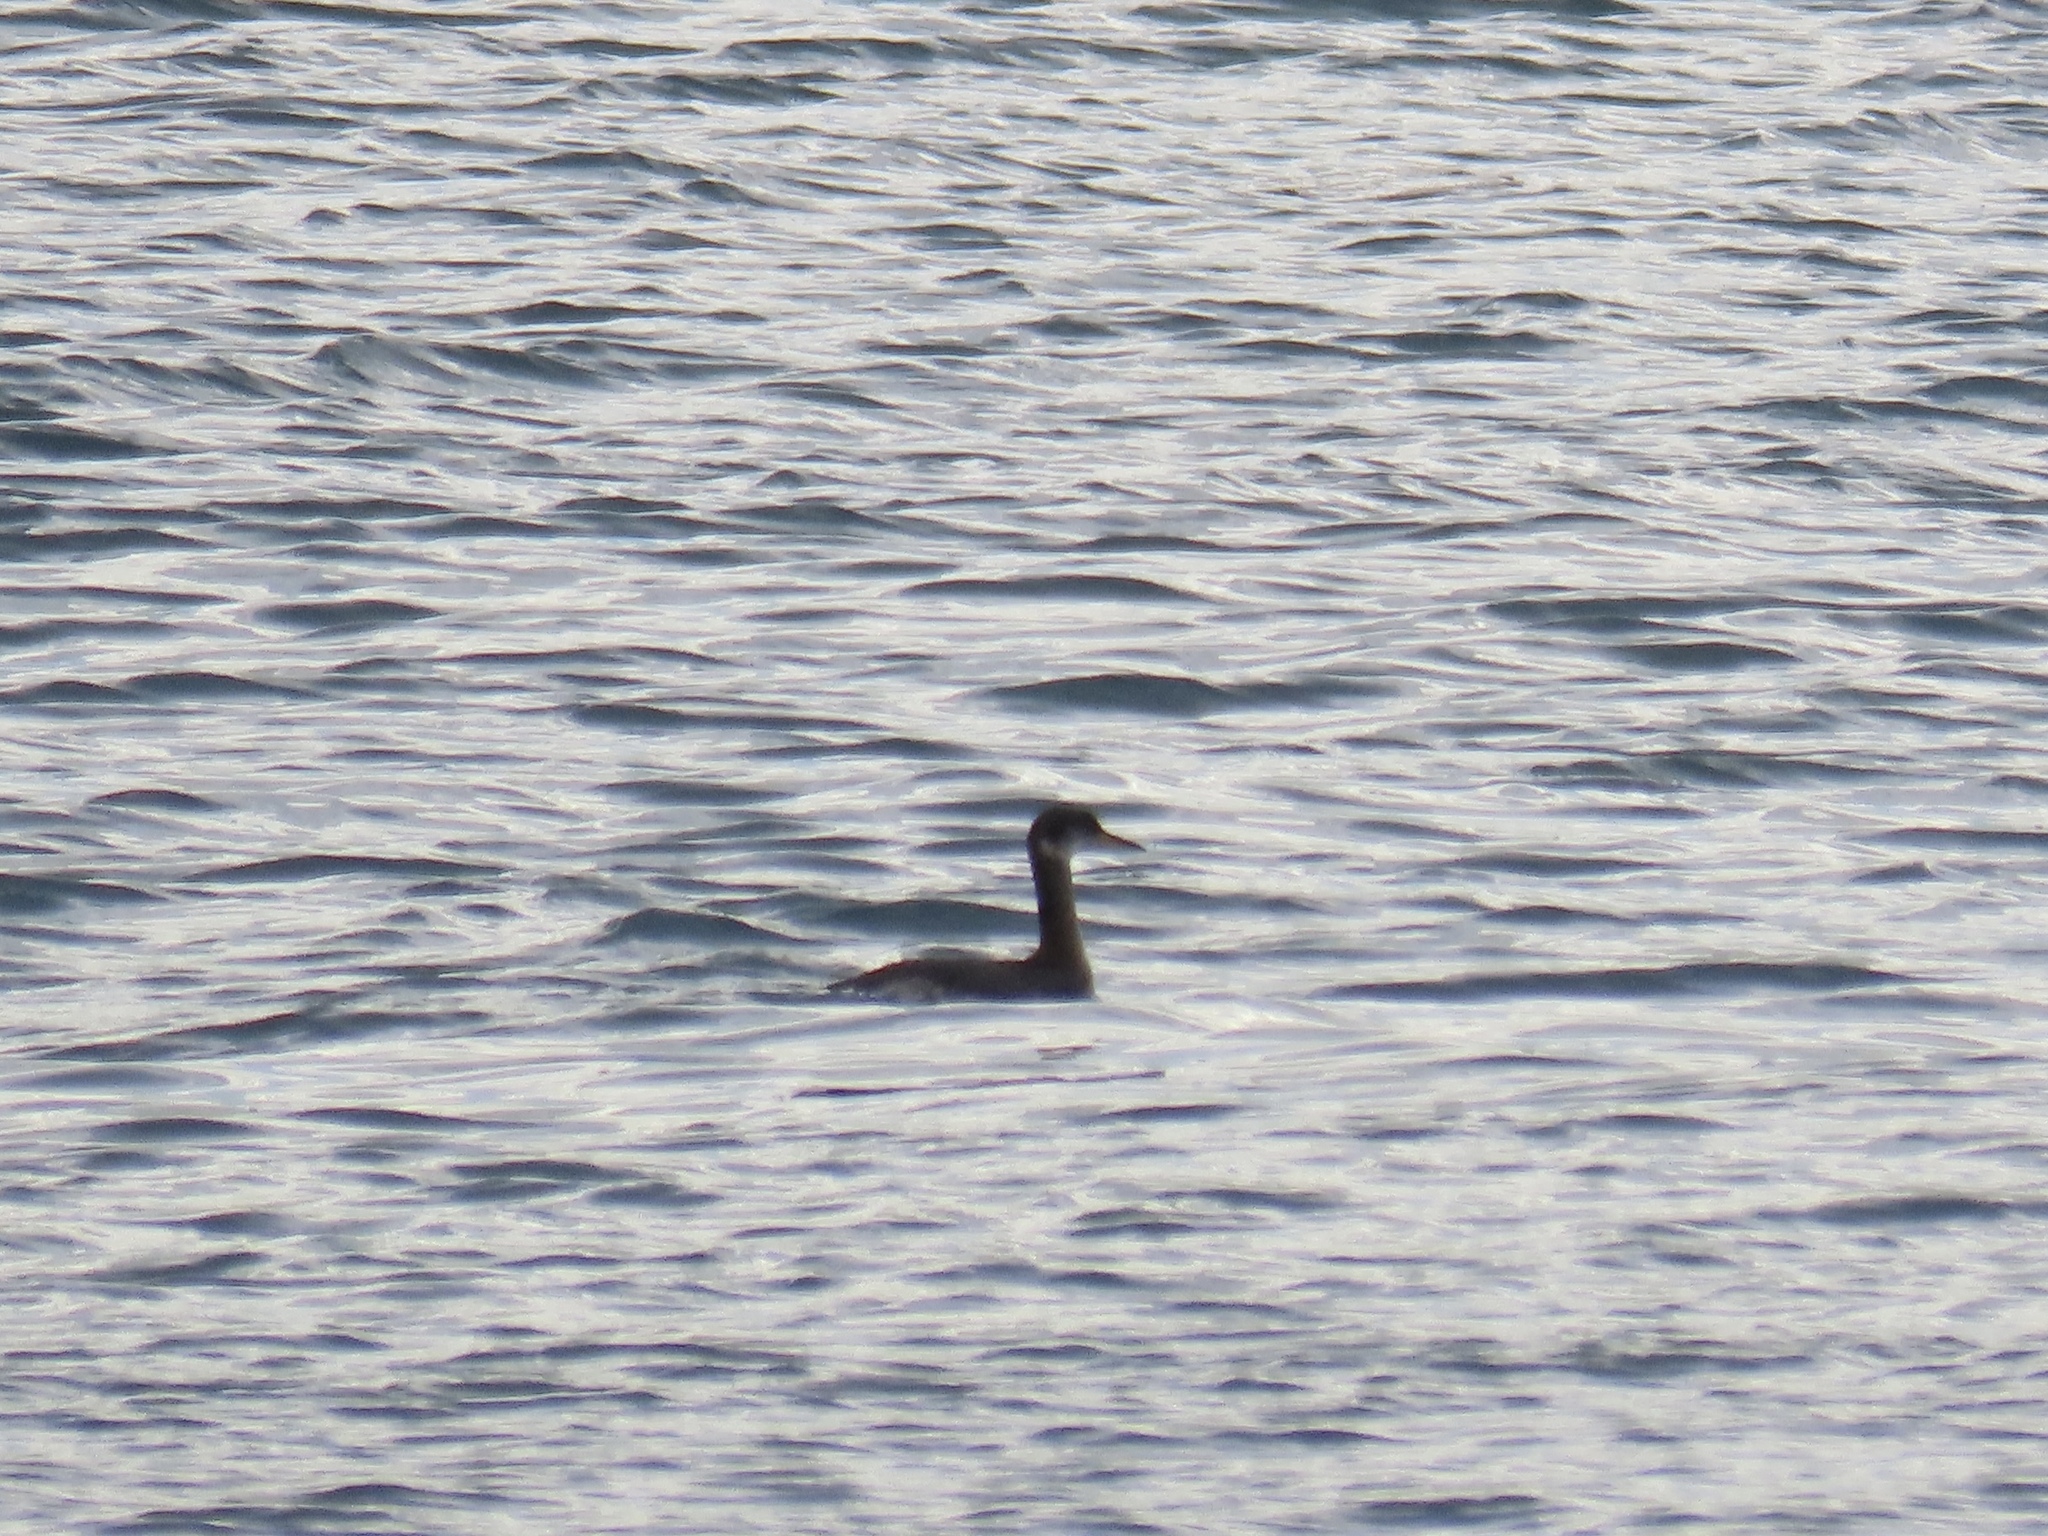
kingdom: Animalia
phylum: Chordata
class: Aves
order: Podicipediformes
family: Podicipedidae
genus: Podiceps
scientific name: Podiceps grisegena
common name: Red-necked grebe
